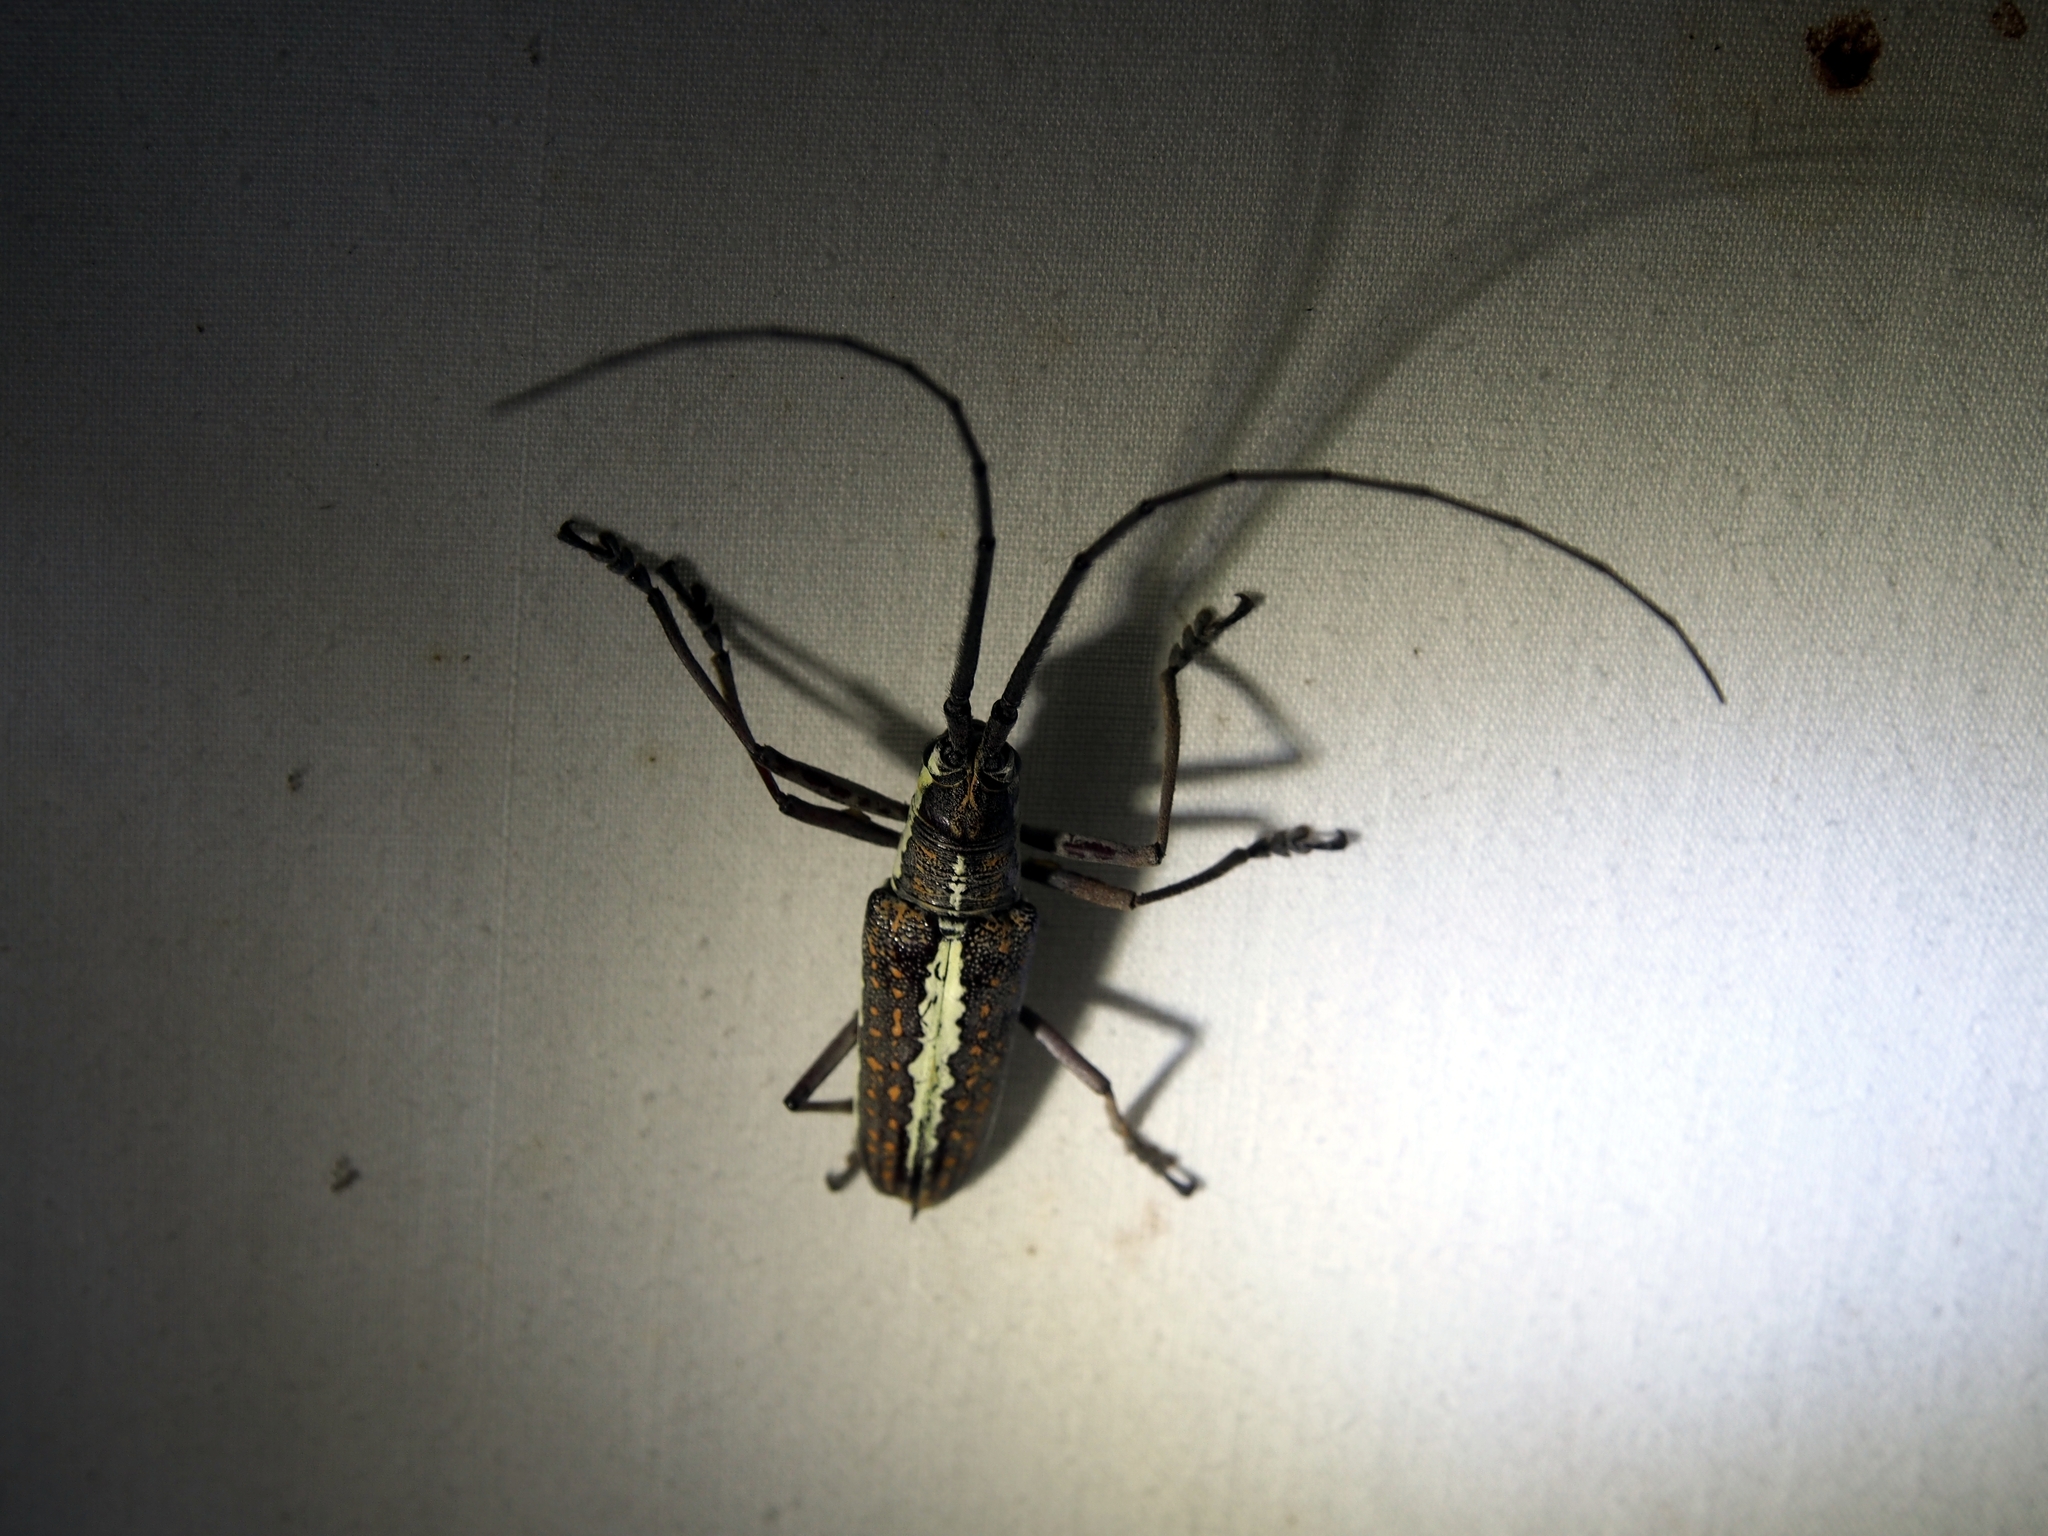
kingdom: Animalia
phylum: Arthropoda
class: Insecta
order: Coleoptera
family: Cerambycidae
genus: Neoptychodes
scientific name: Neoptychodes trilineatus
